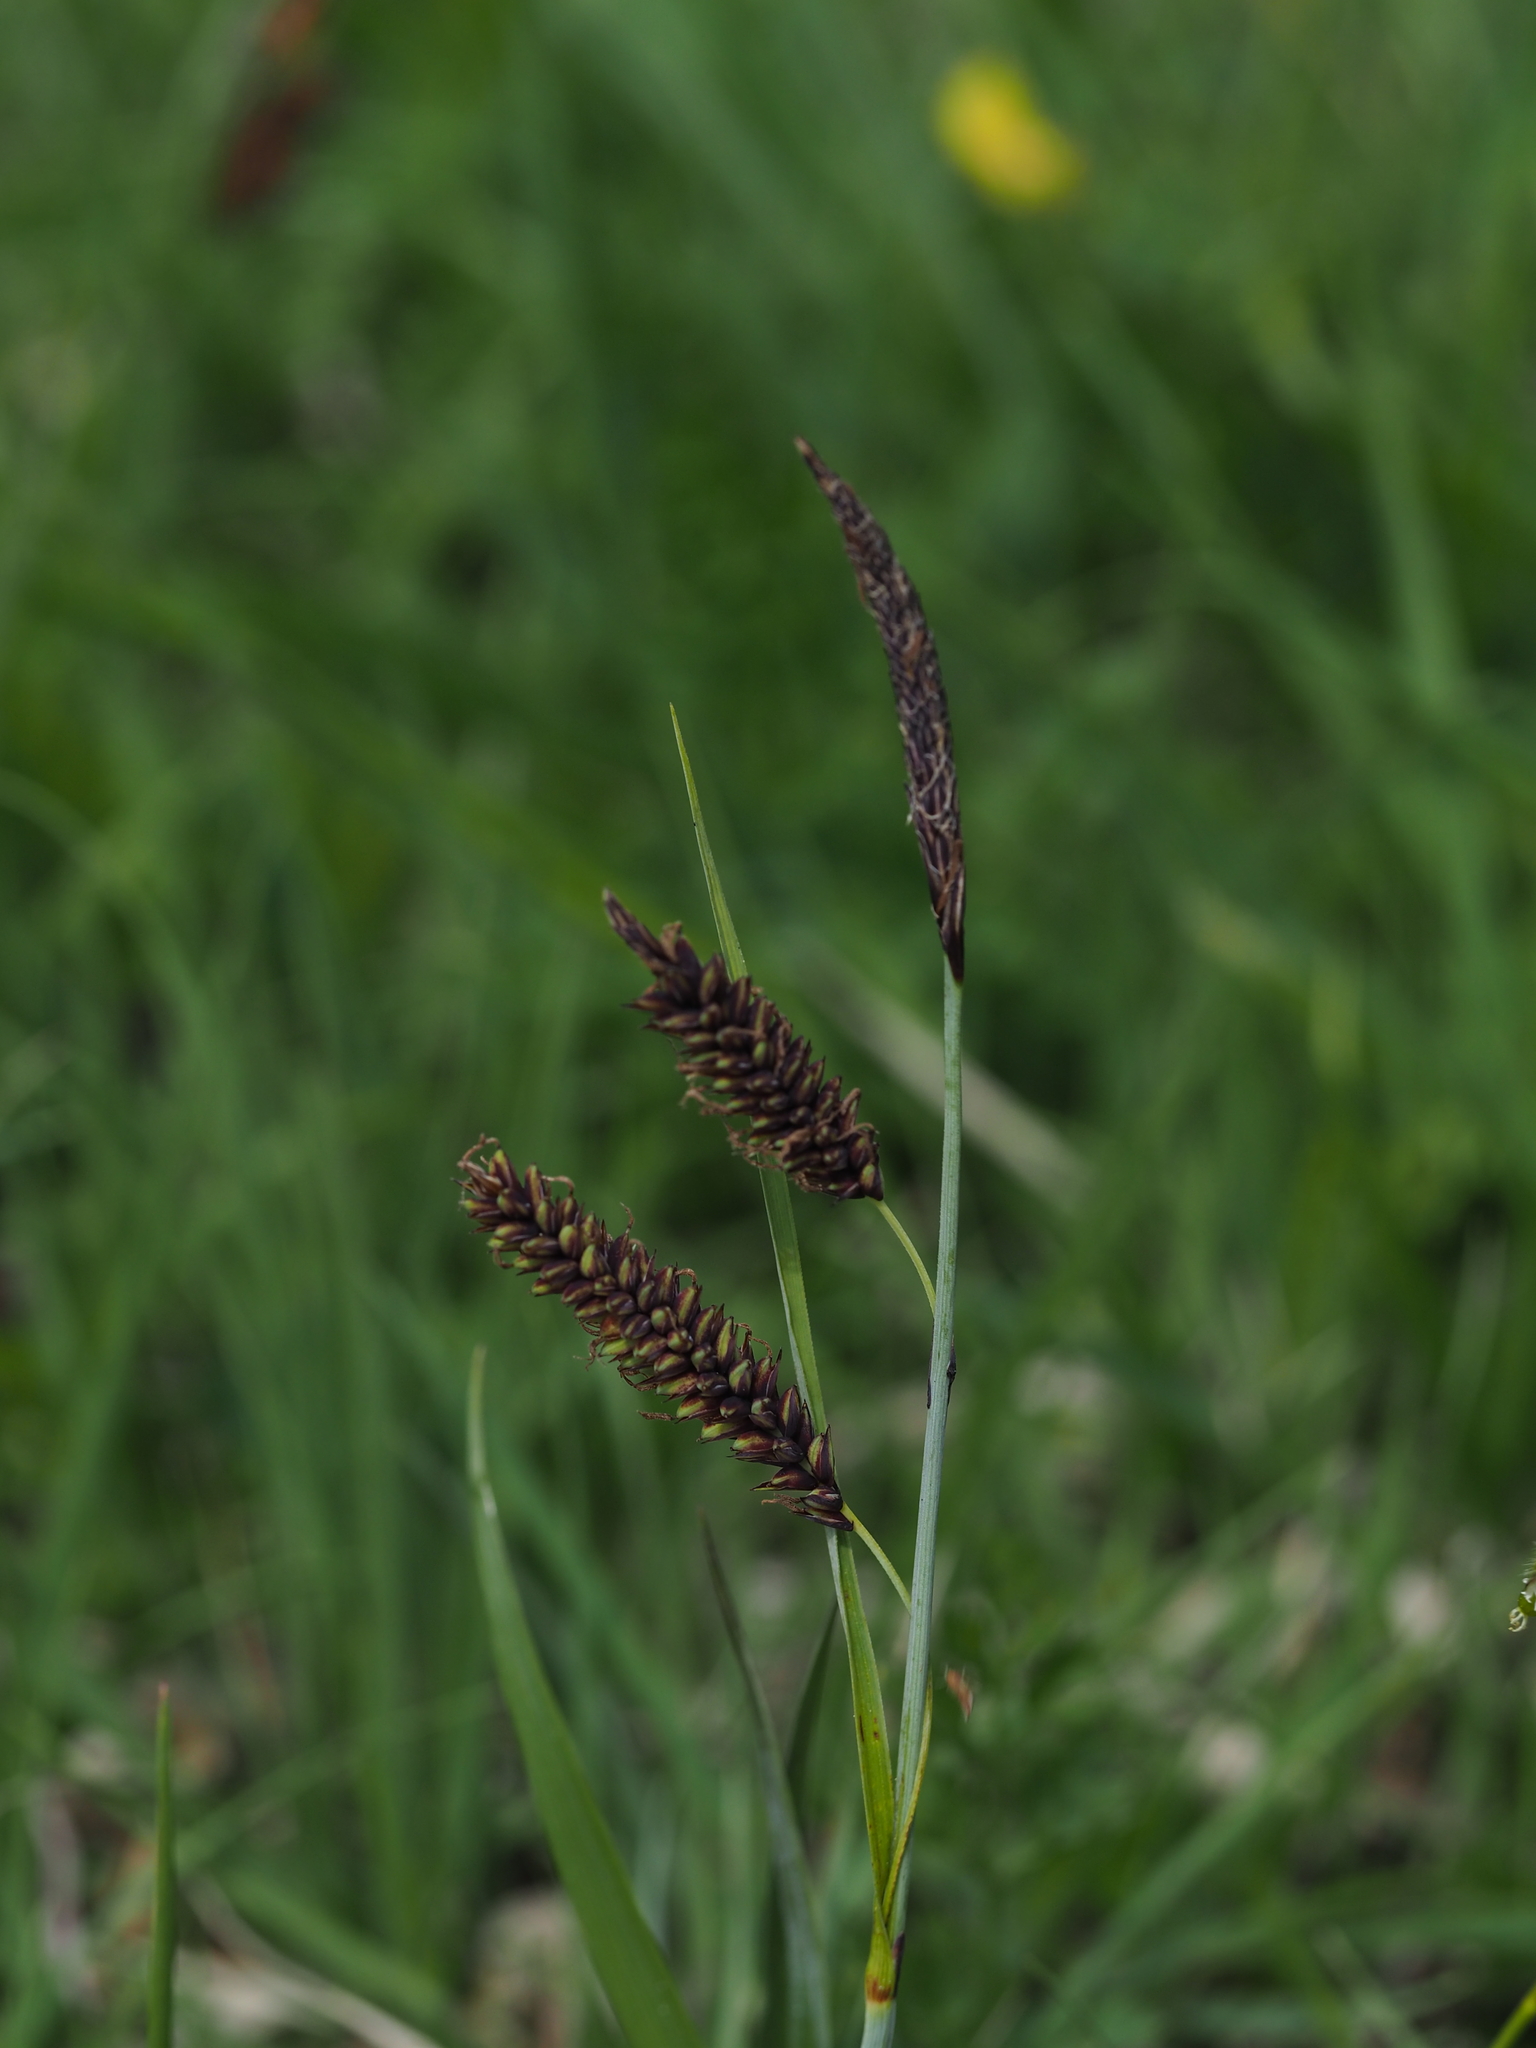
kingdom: Plantae
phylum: Tracheophyta
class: Liliopsida
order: Poales
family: Cyperaceae
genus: Carex
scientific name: Carex flacca
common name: Glaucous sedge
